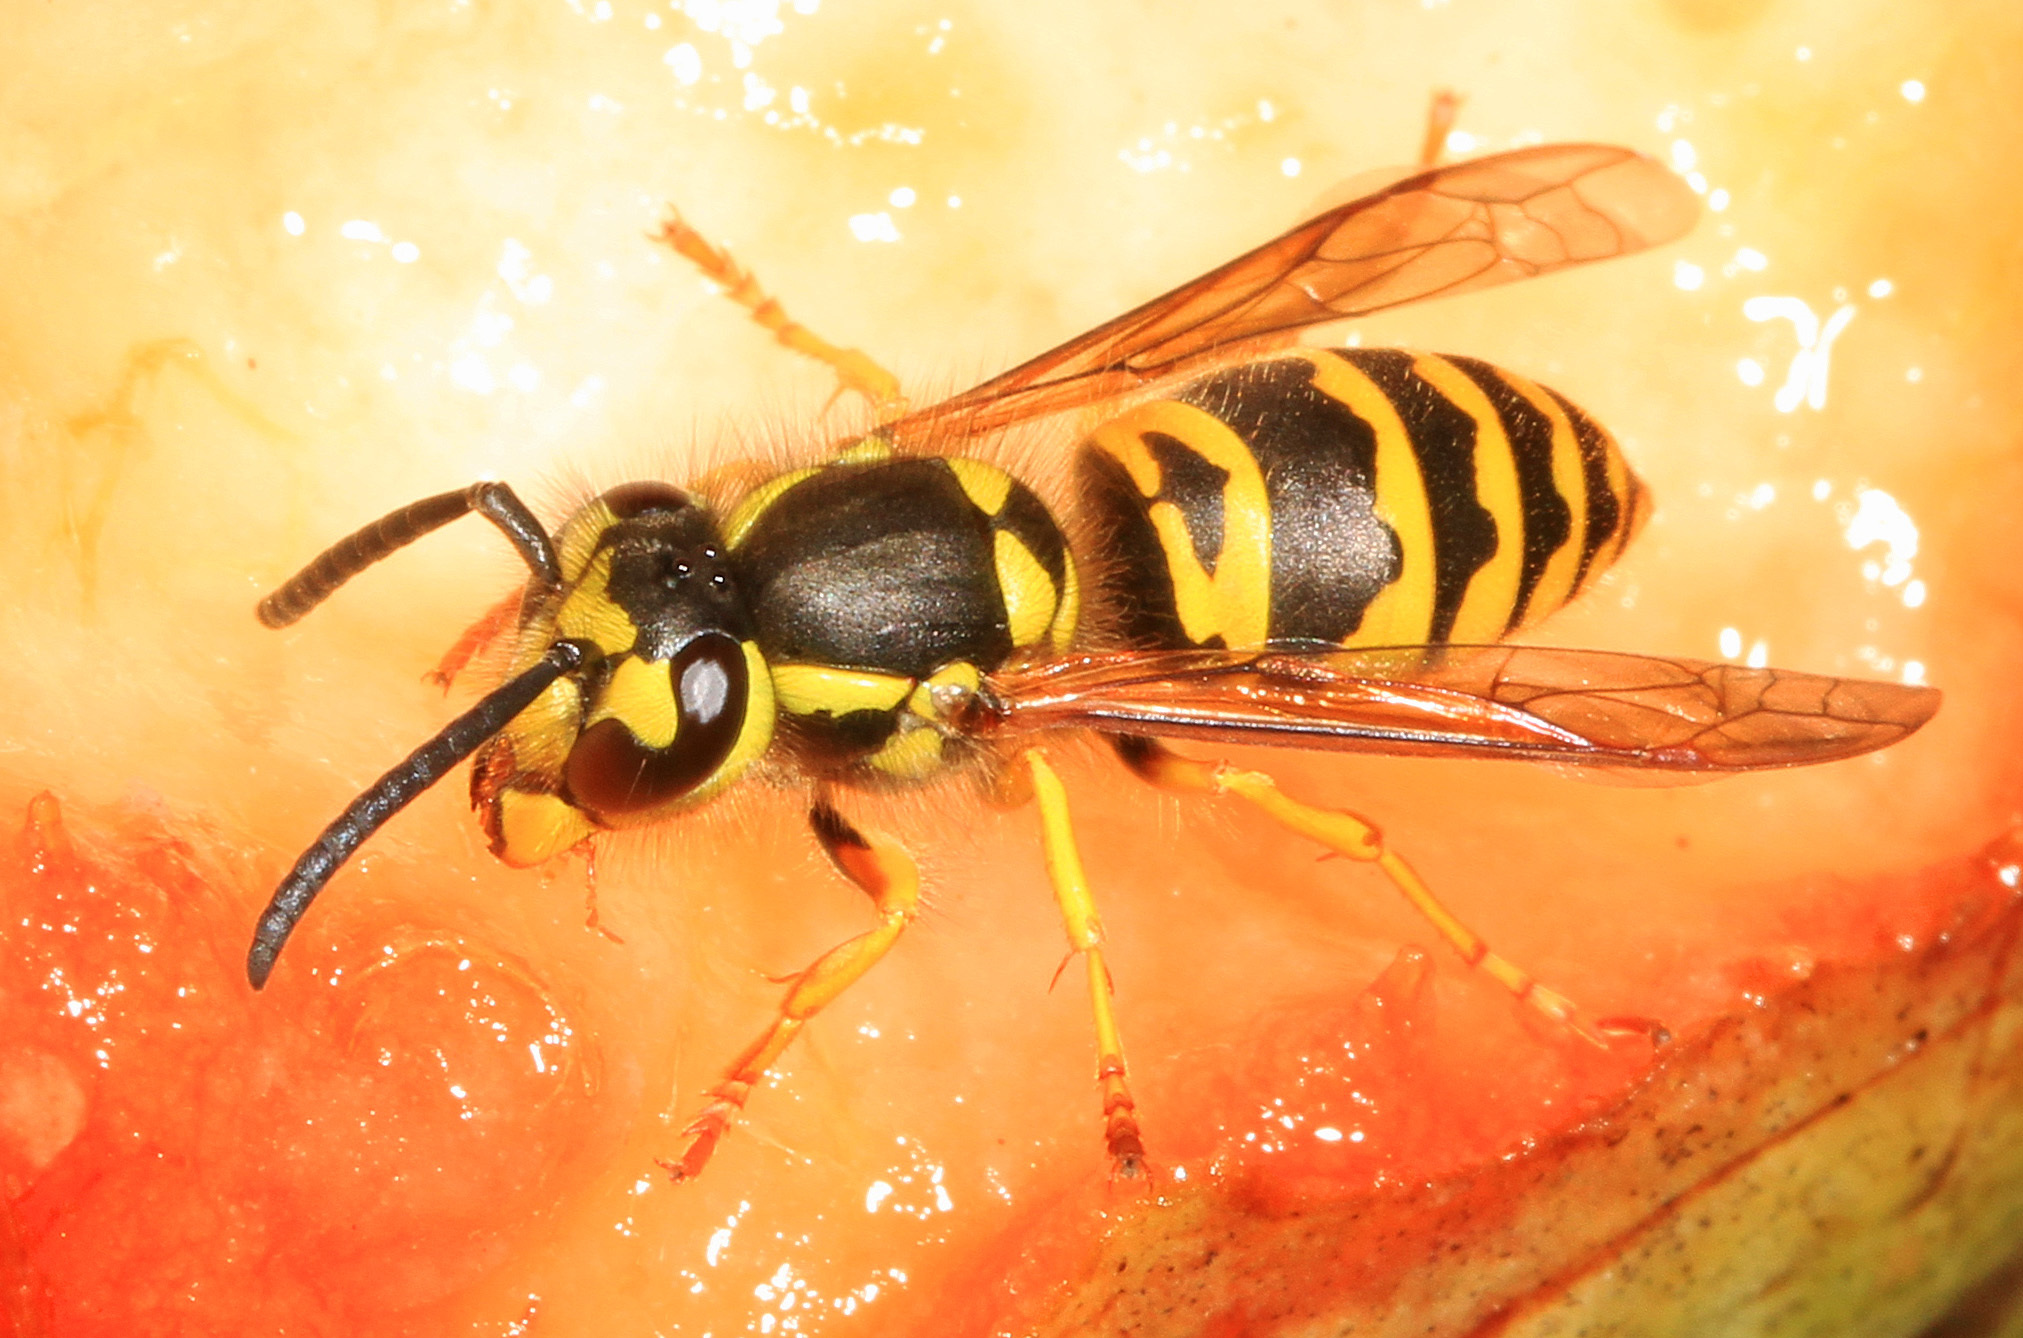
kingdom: Animalia
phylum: Arthropoda
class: Insecta
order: Hymenoptera
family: Vespidae
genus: Vespula
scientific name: Vespula maculifrons
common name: Eastern yellowjacket
